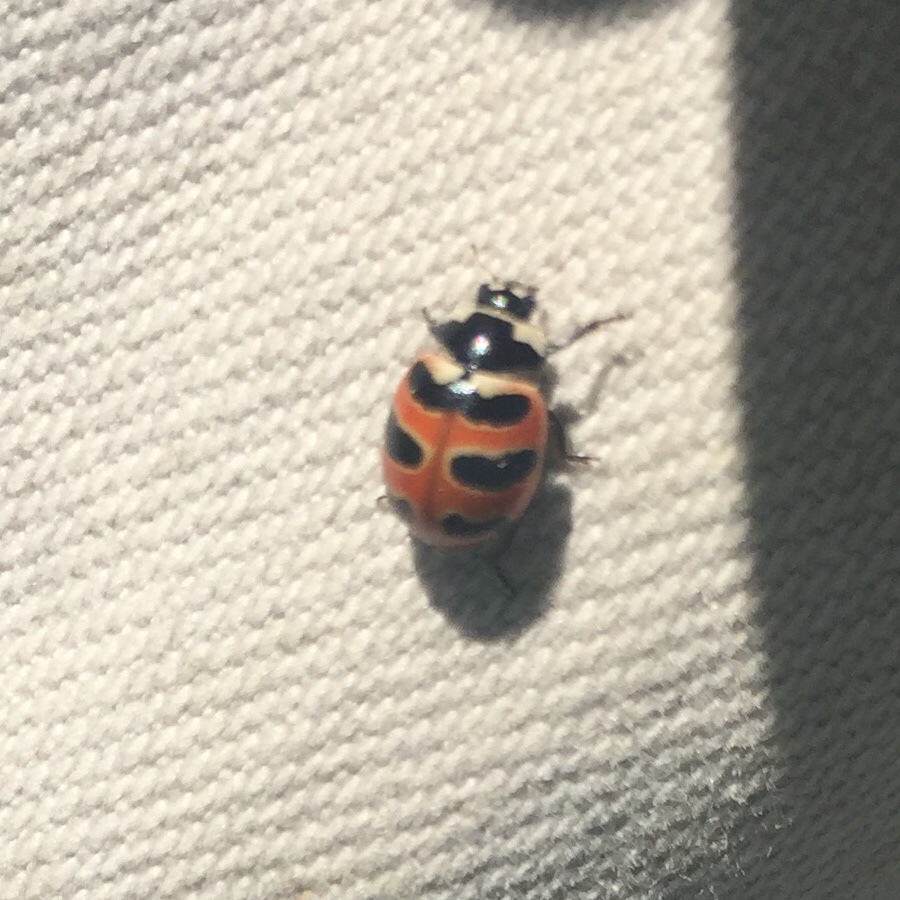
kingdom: Animalia
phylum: Arthropoda
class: Insecta
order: Coleoptera
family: Coccinellidae
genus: Coccinella
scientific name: Coccinella trifasciata
